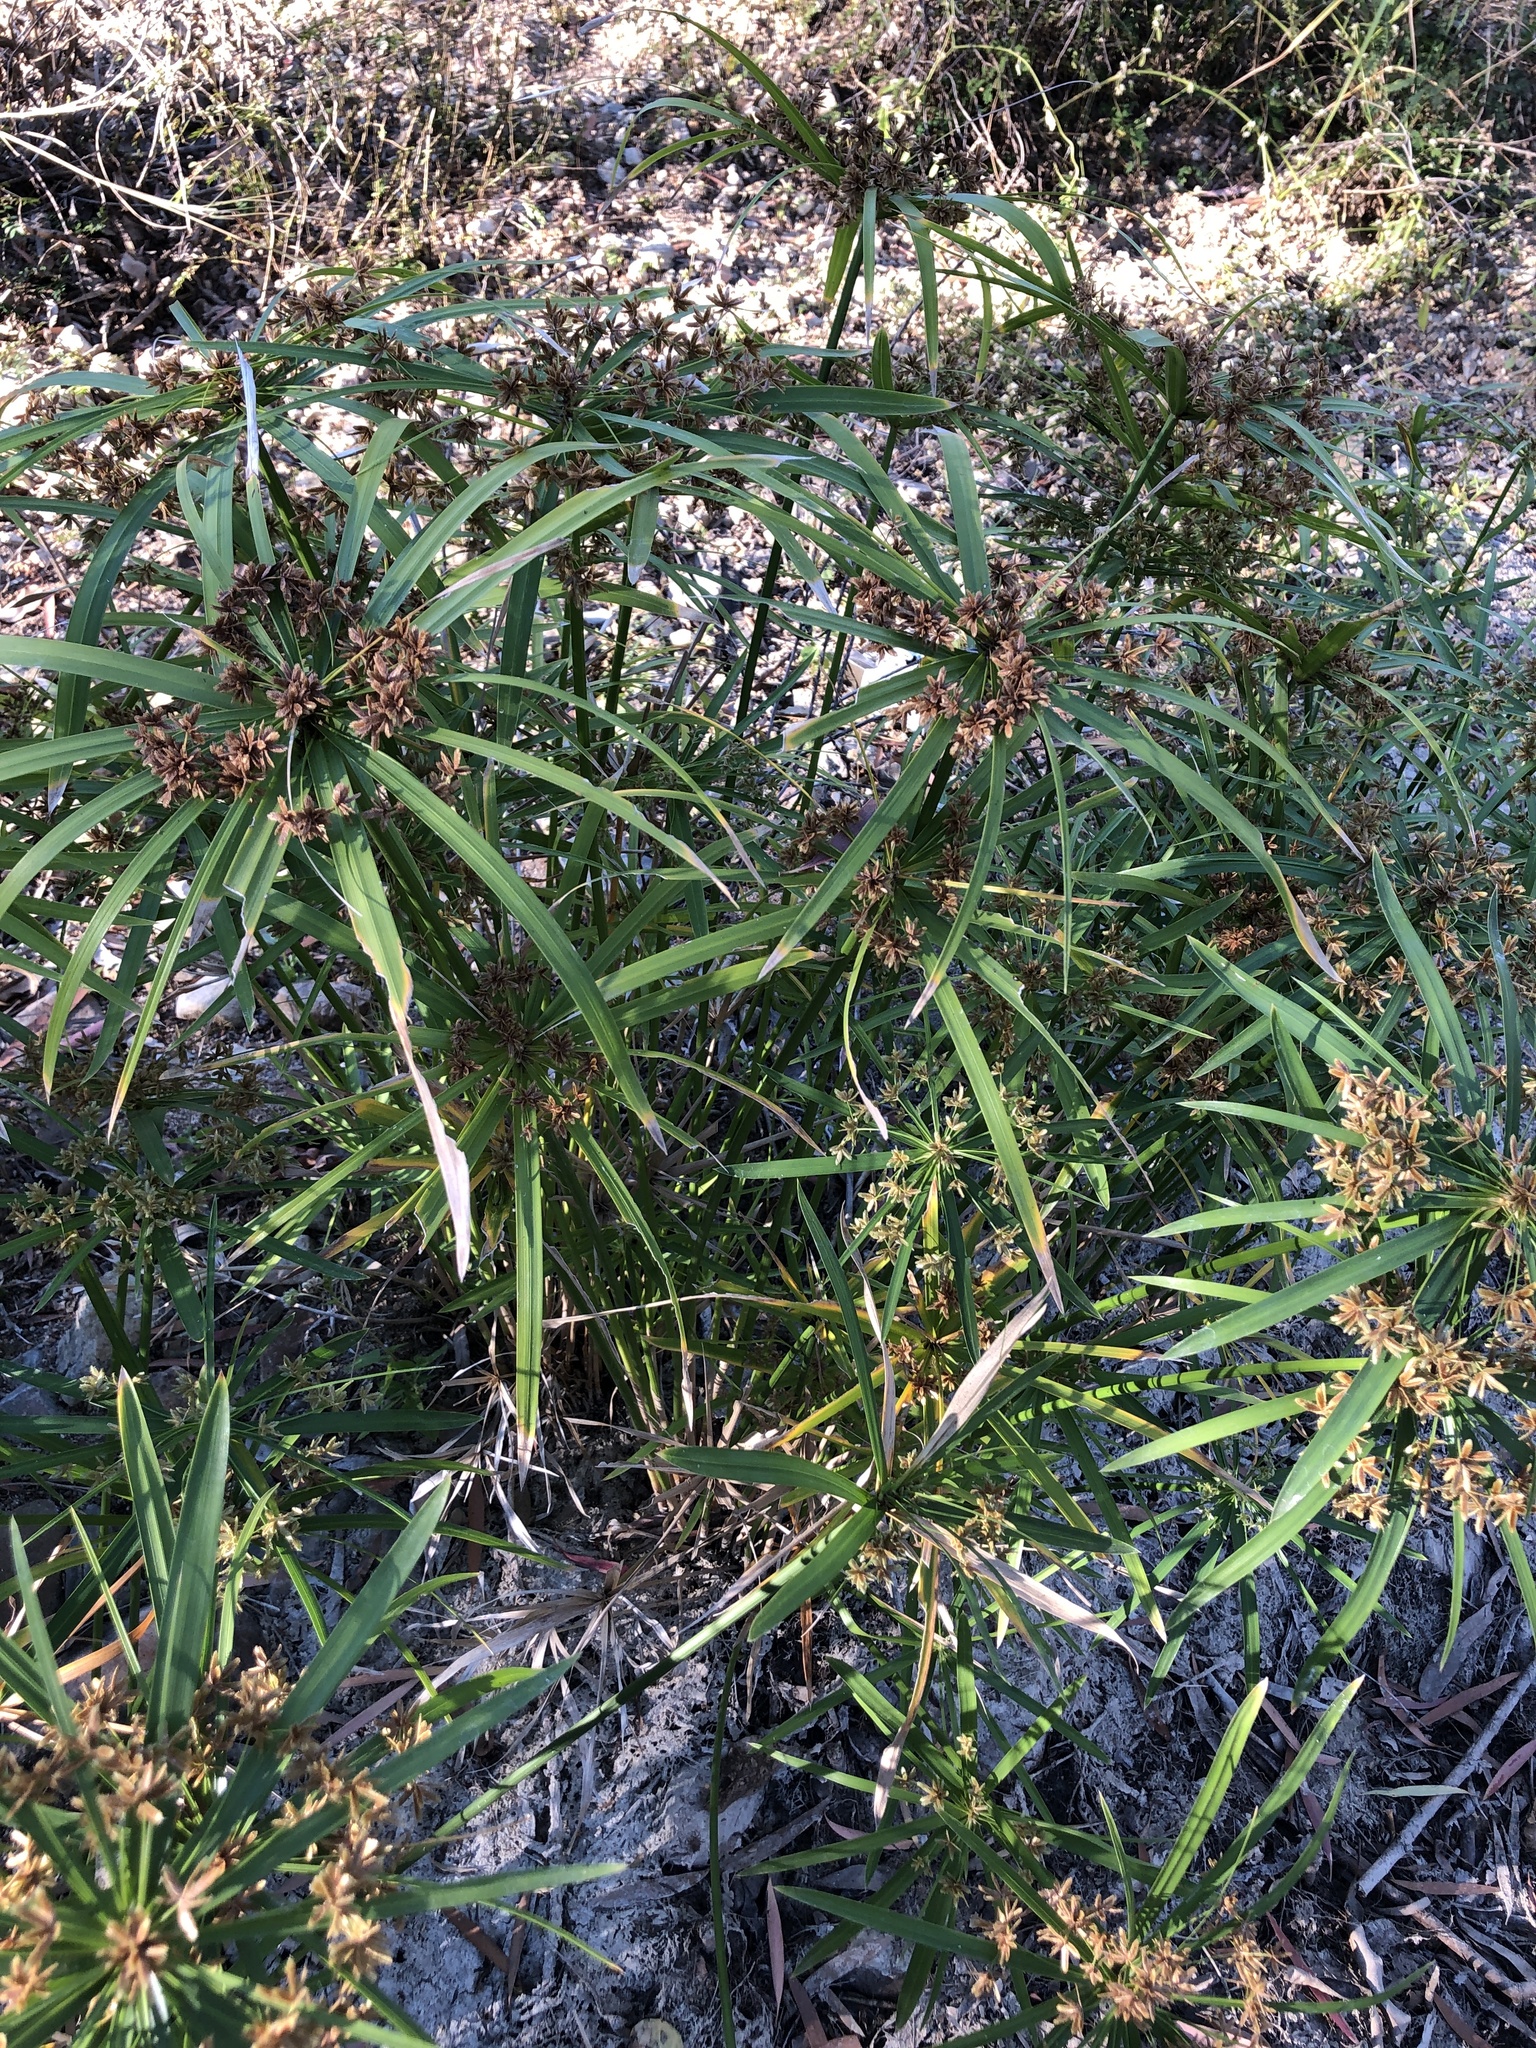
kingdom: Plantae
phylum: Tracheophyta
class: Liliopsida
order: Poales
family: Cyperaceae
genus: Cyperus
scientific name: Cyperus alternifolius
